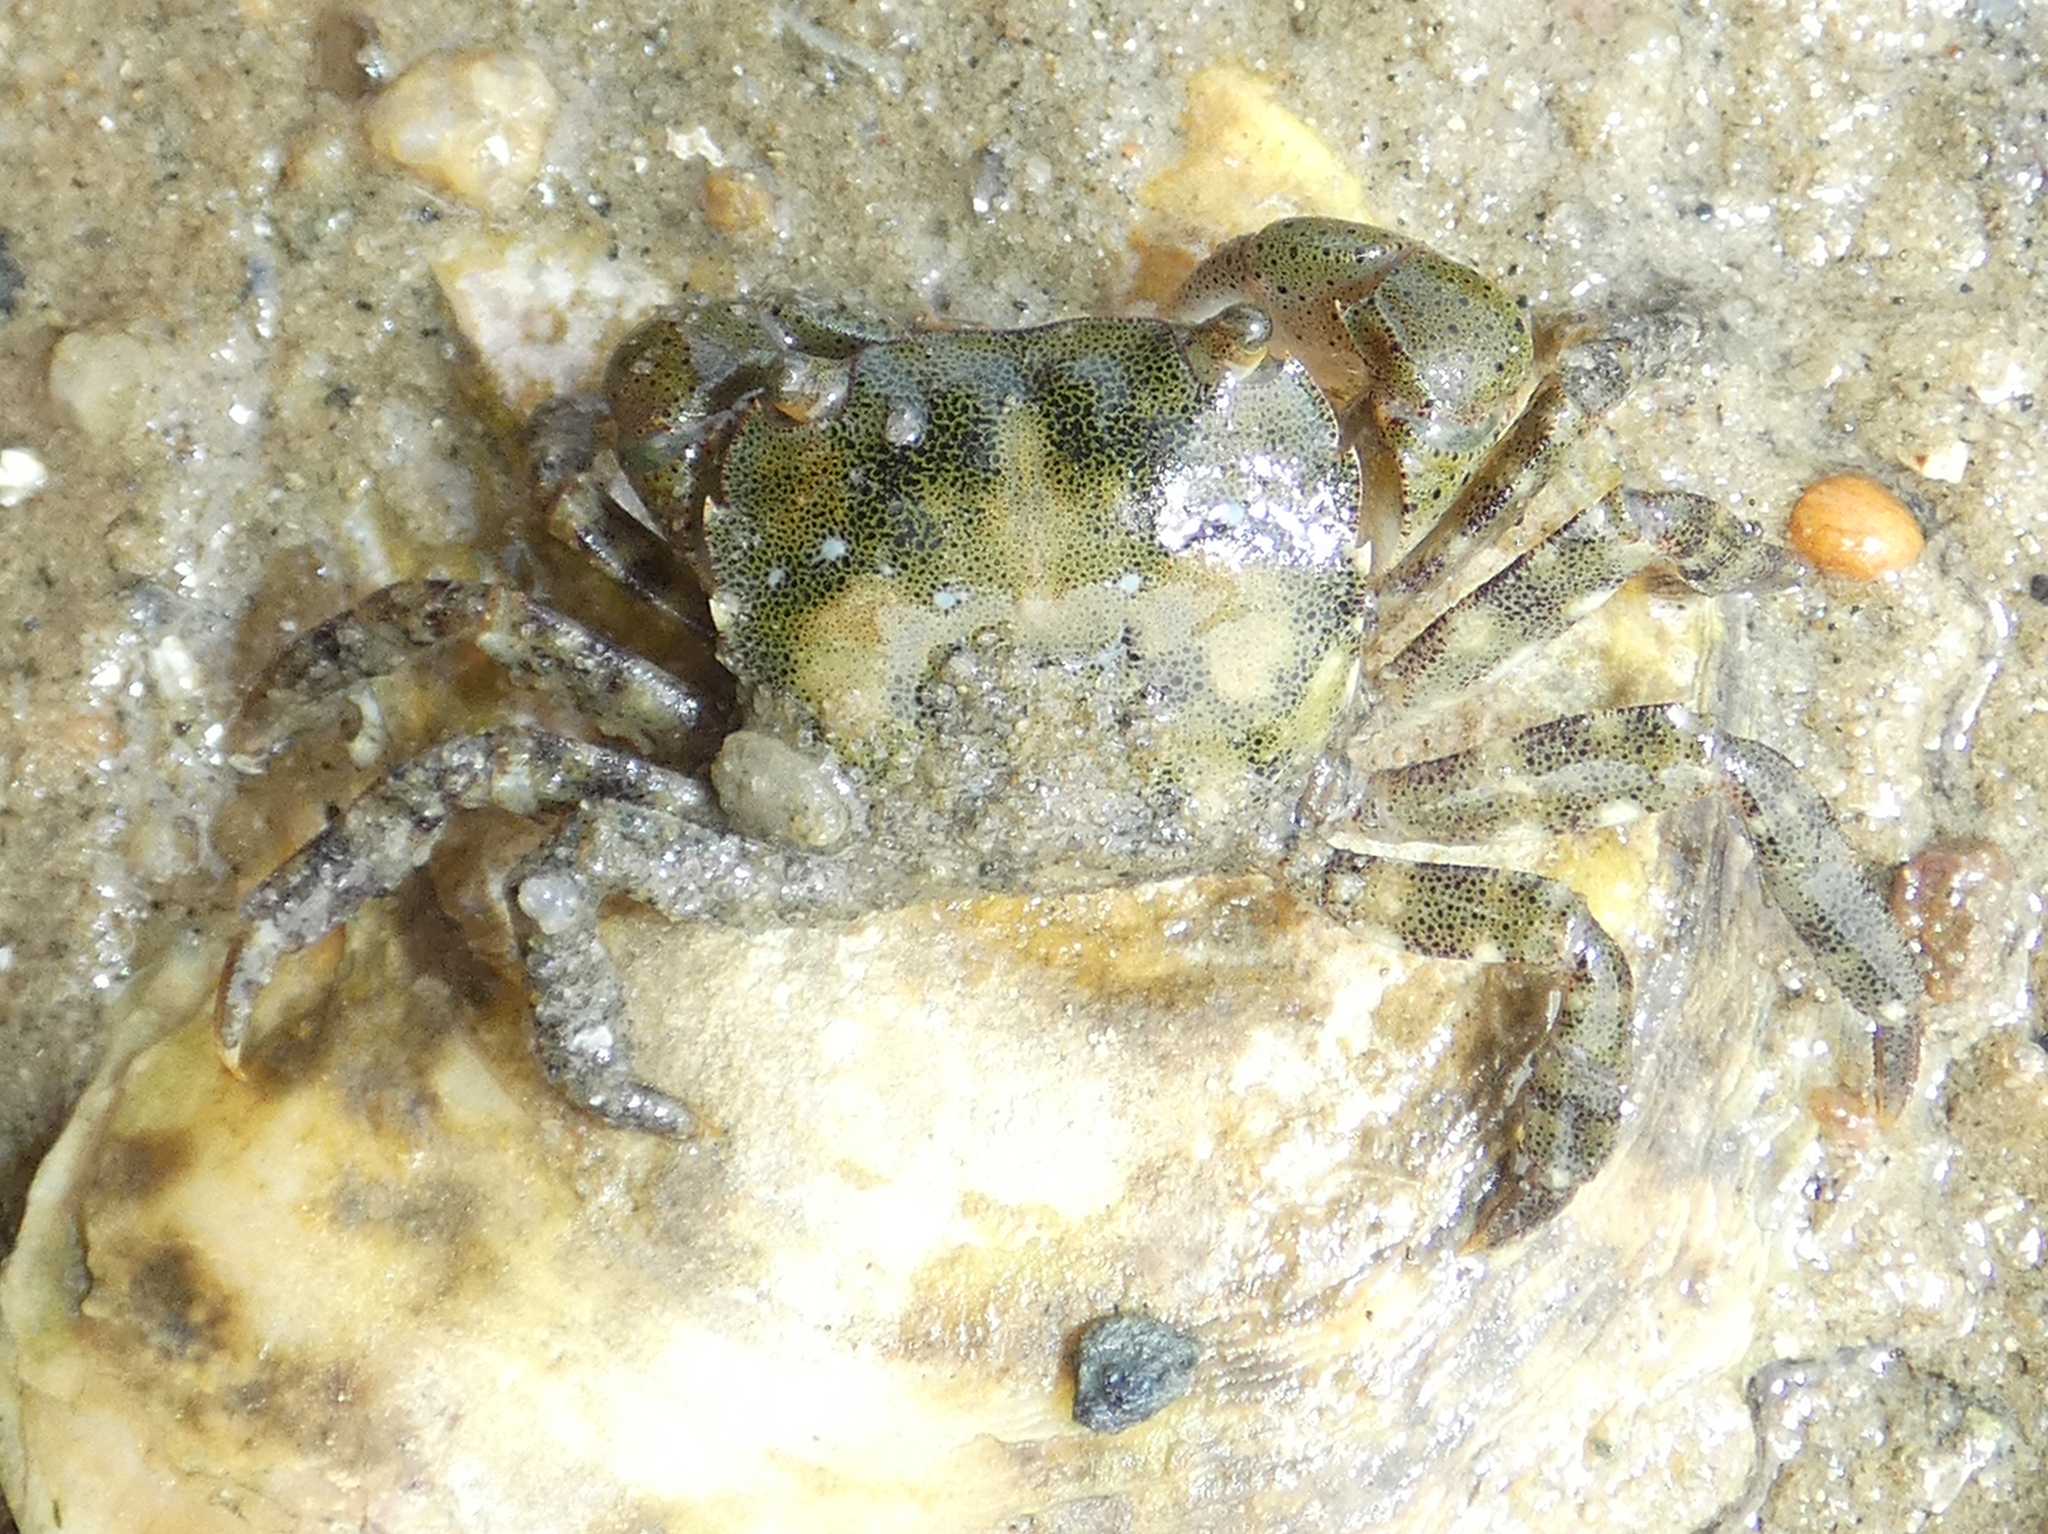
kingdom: Animalia
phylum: Arthropoda
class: Malacostraca
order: Decapoda
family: Varunidae
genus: Hemigrapsus
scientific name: Hemigrapsus sanguineus
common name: Asian shore crab
